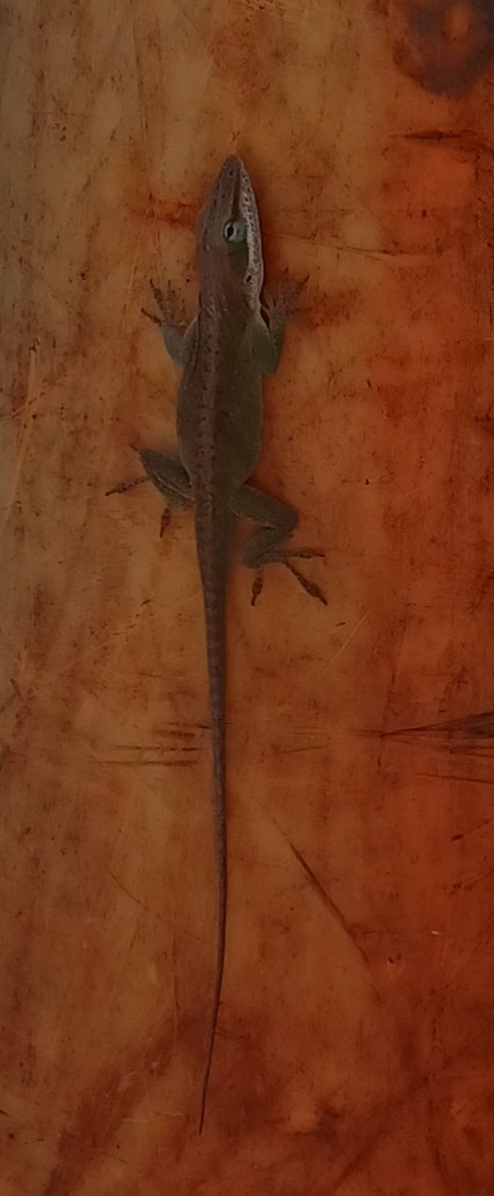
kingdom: Animalia
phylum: Chordata
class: Squamata
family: Dactyloidae
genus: Anolis
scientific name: Anolis carolinensis
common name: Green anole
